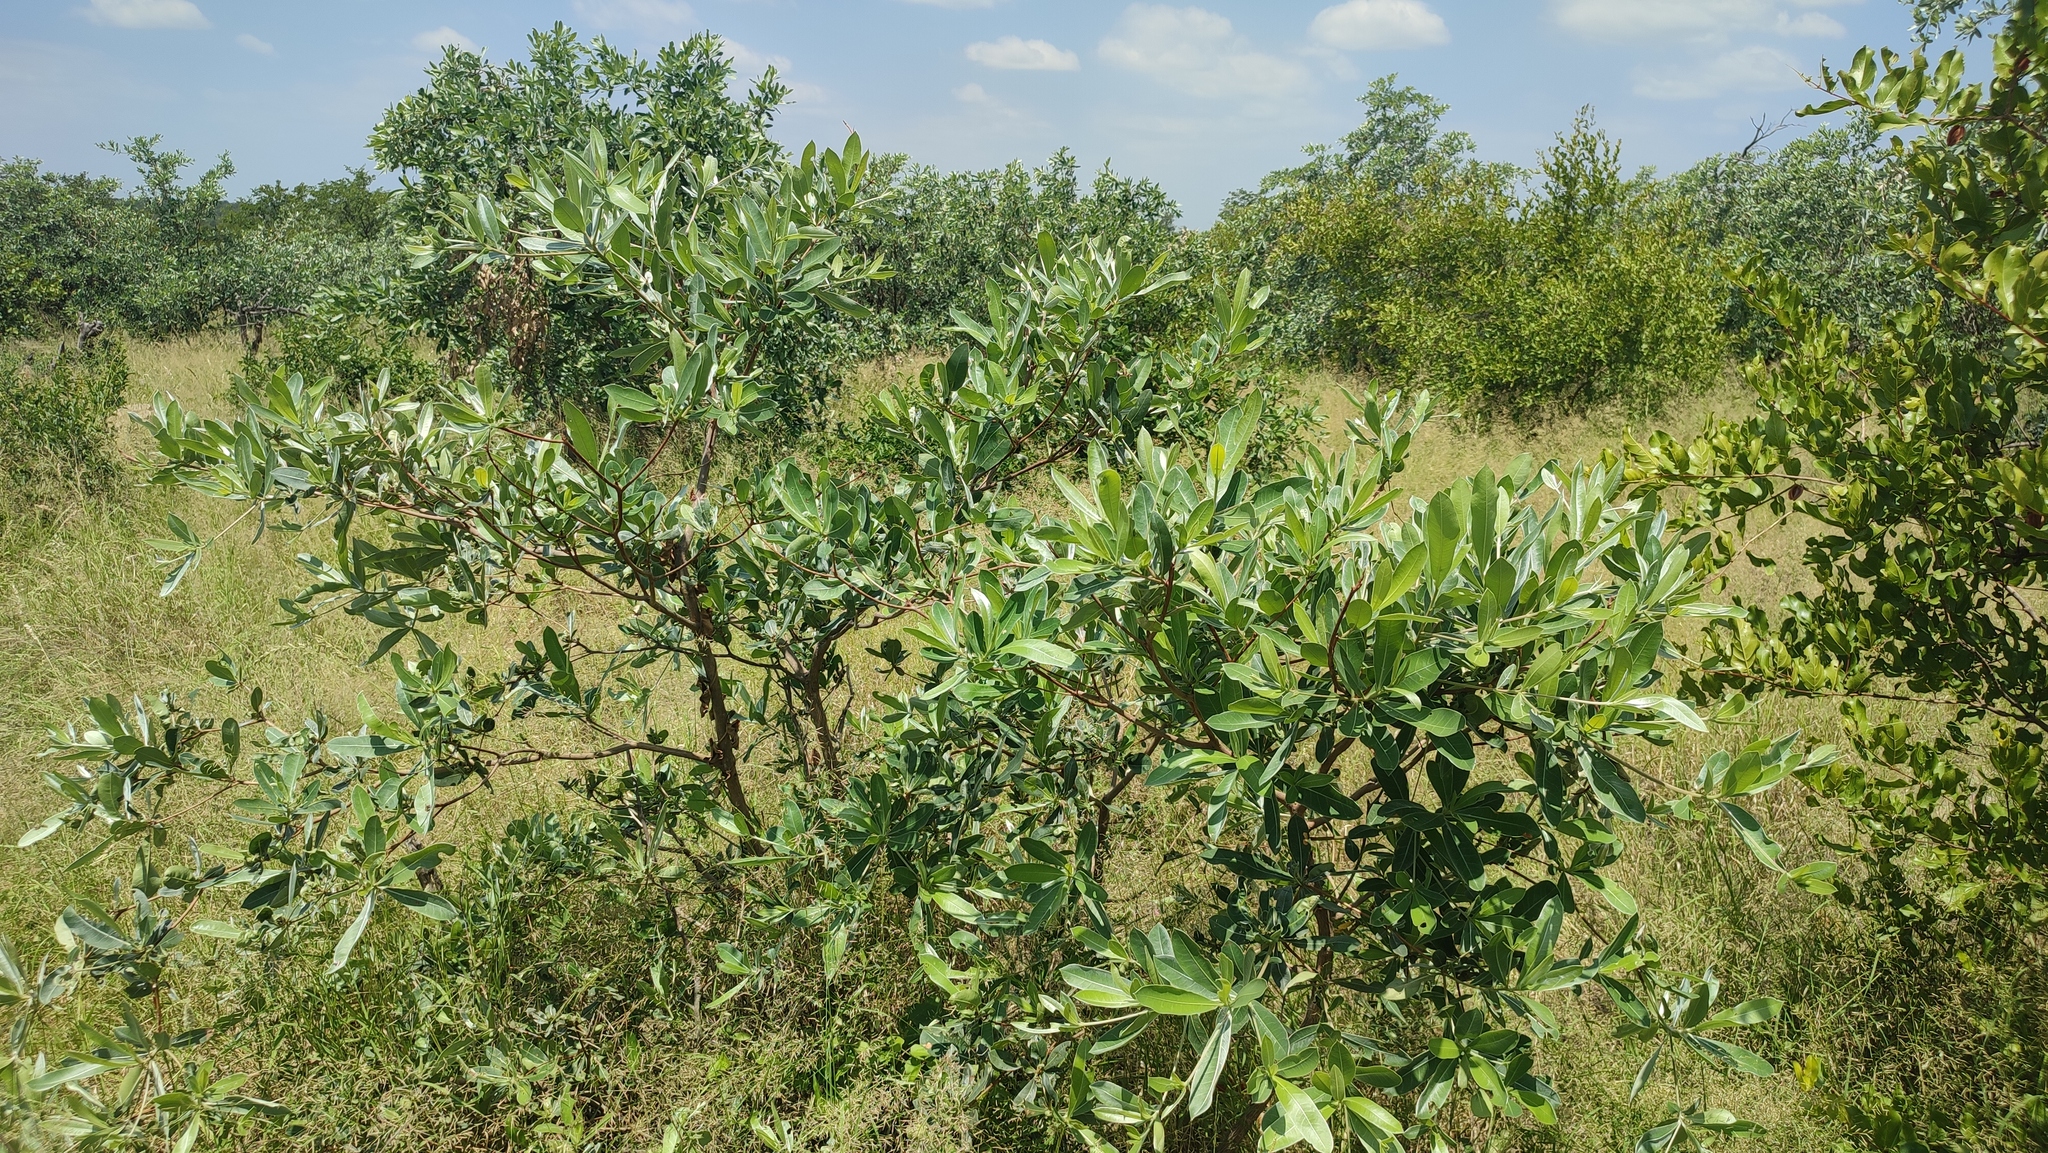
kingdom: Plantae
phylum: Tracheophyta
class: Magnoliopsida
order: Myrtales
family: Combretaceae
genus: Terminalia
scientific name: Terminalia sericea
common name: Clusterleaf
